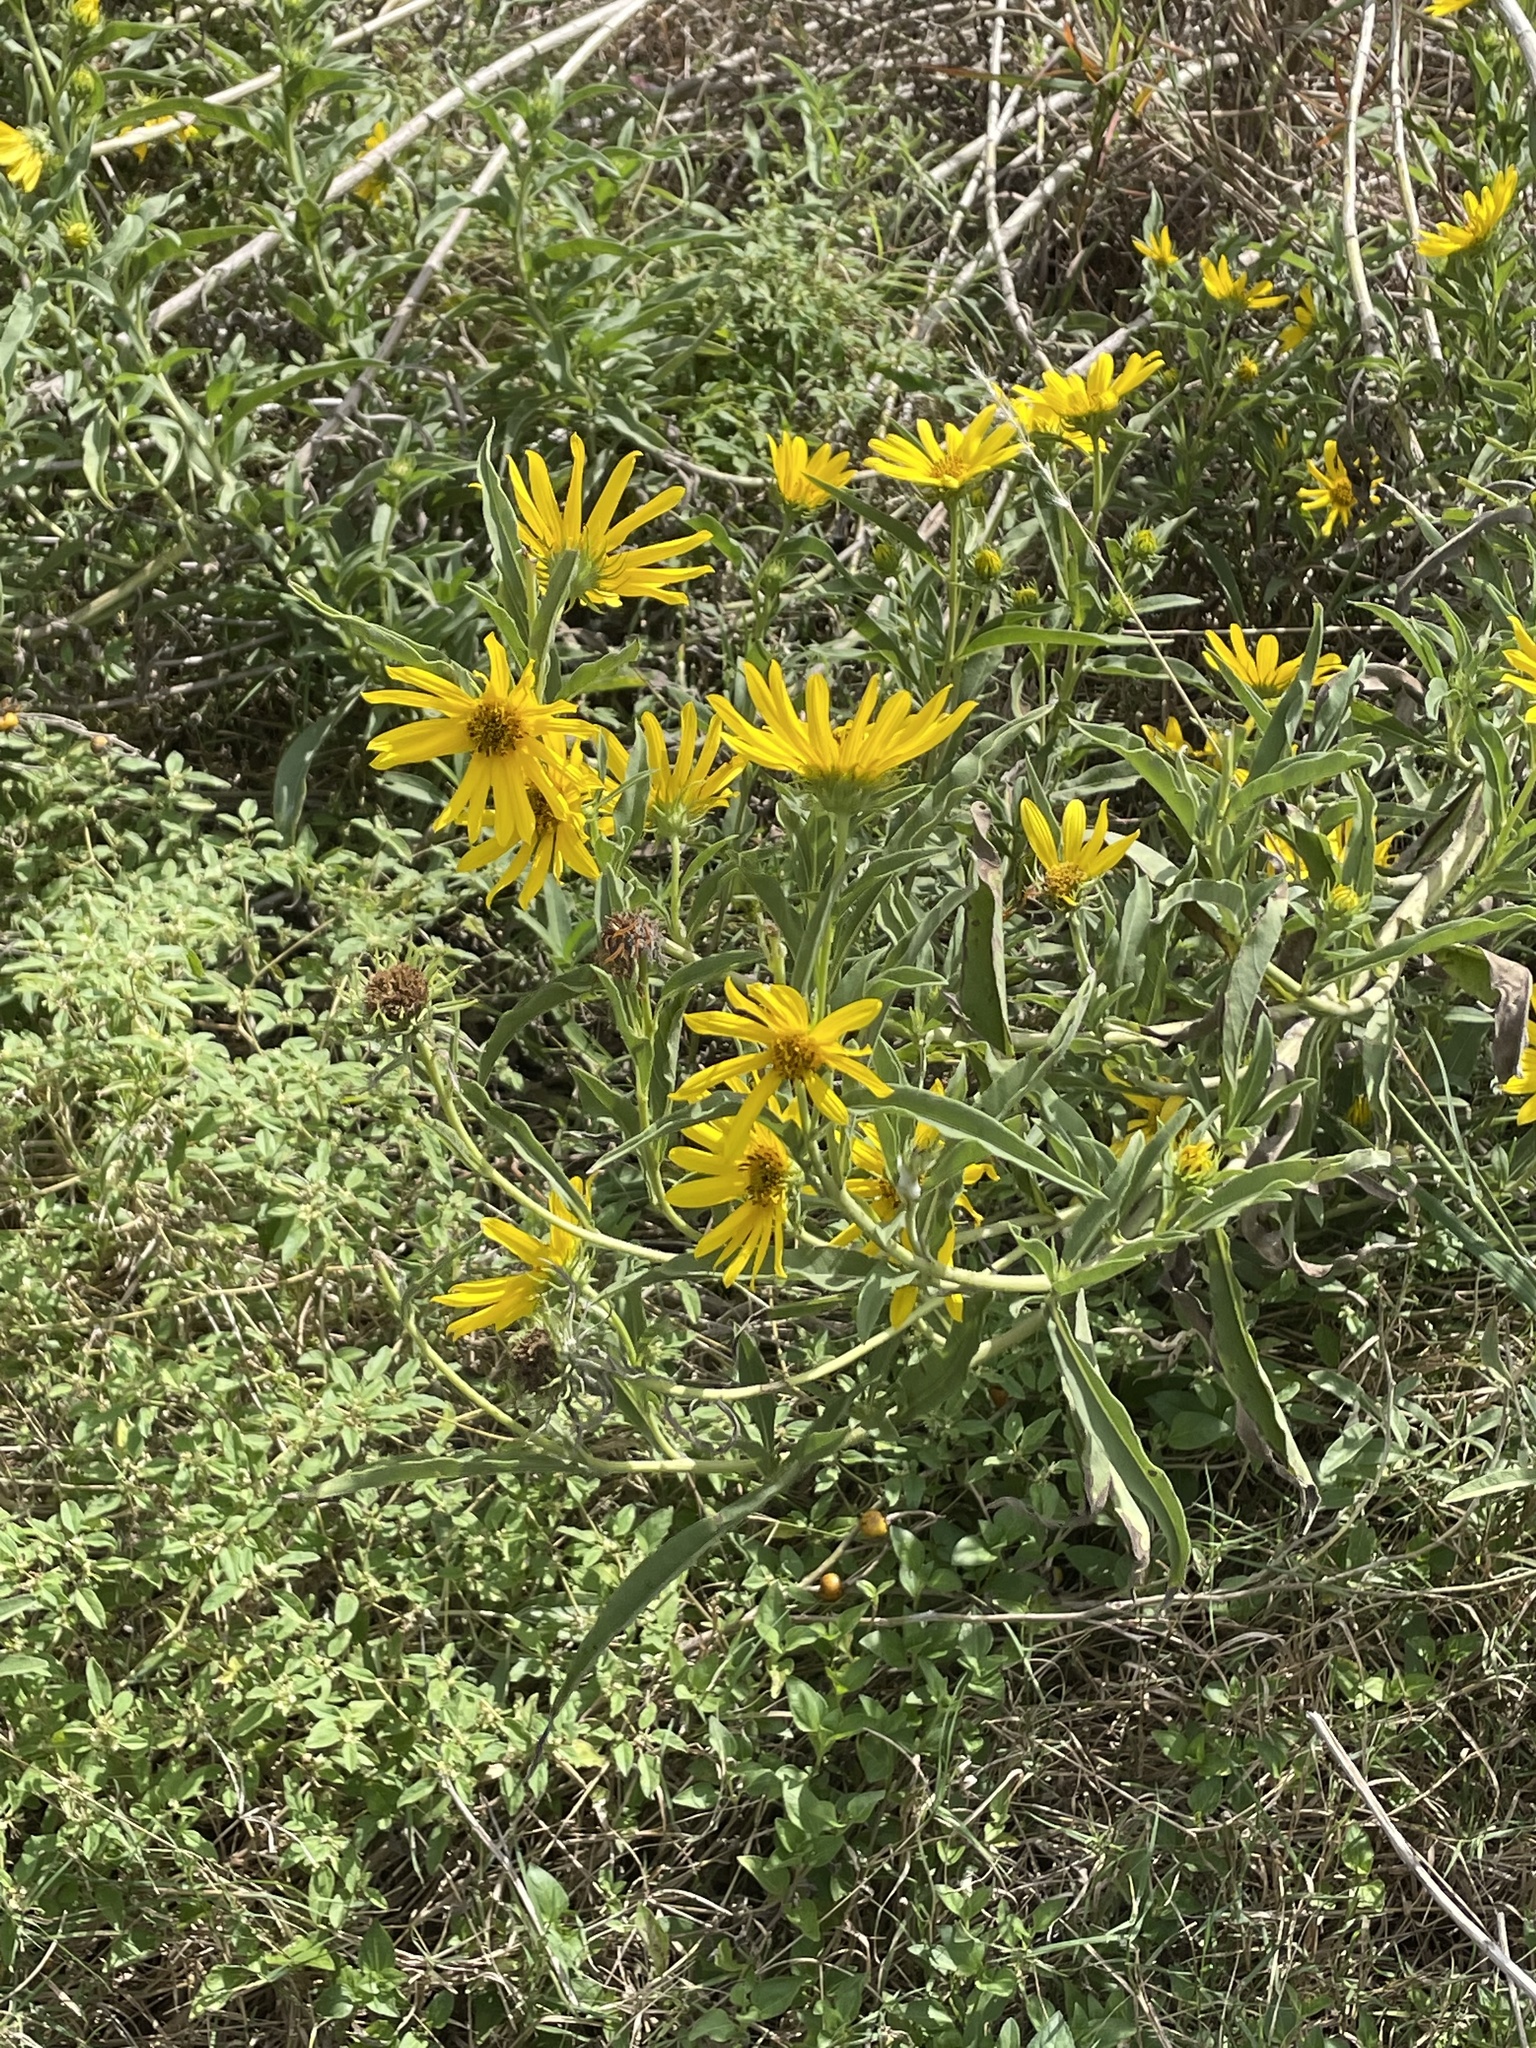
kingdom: Plantae
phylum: Tracheophyta
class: Magnoliopsida
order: Asterales
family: Asteraceae
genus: Helianthus
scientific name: Helianthus maximiliani
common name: Maximilian's sunflower
